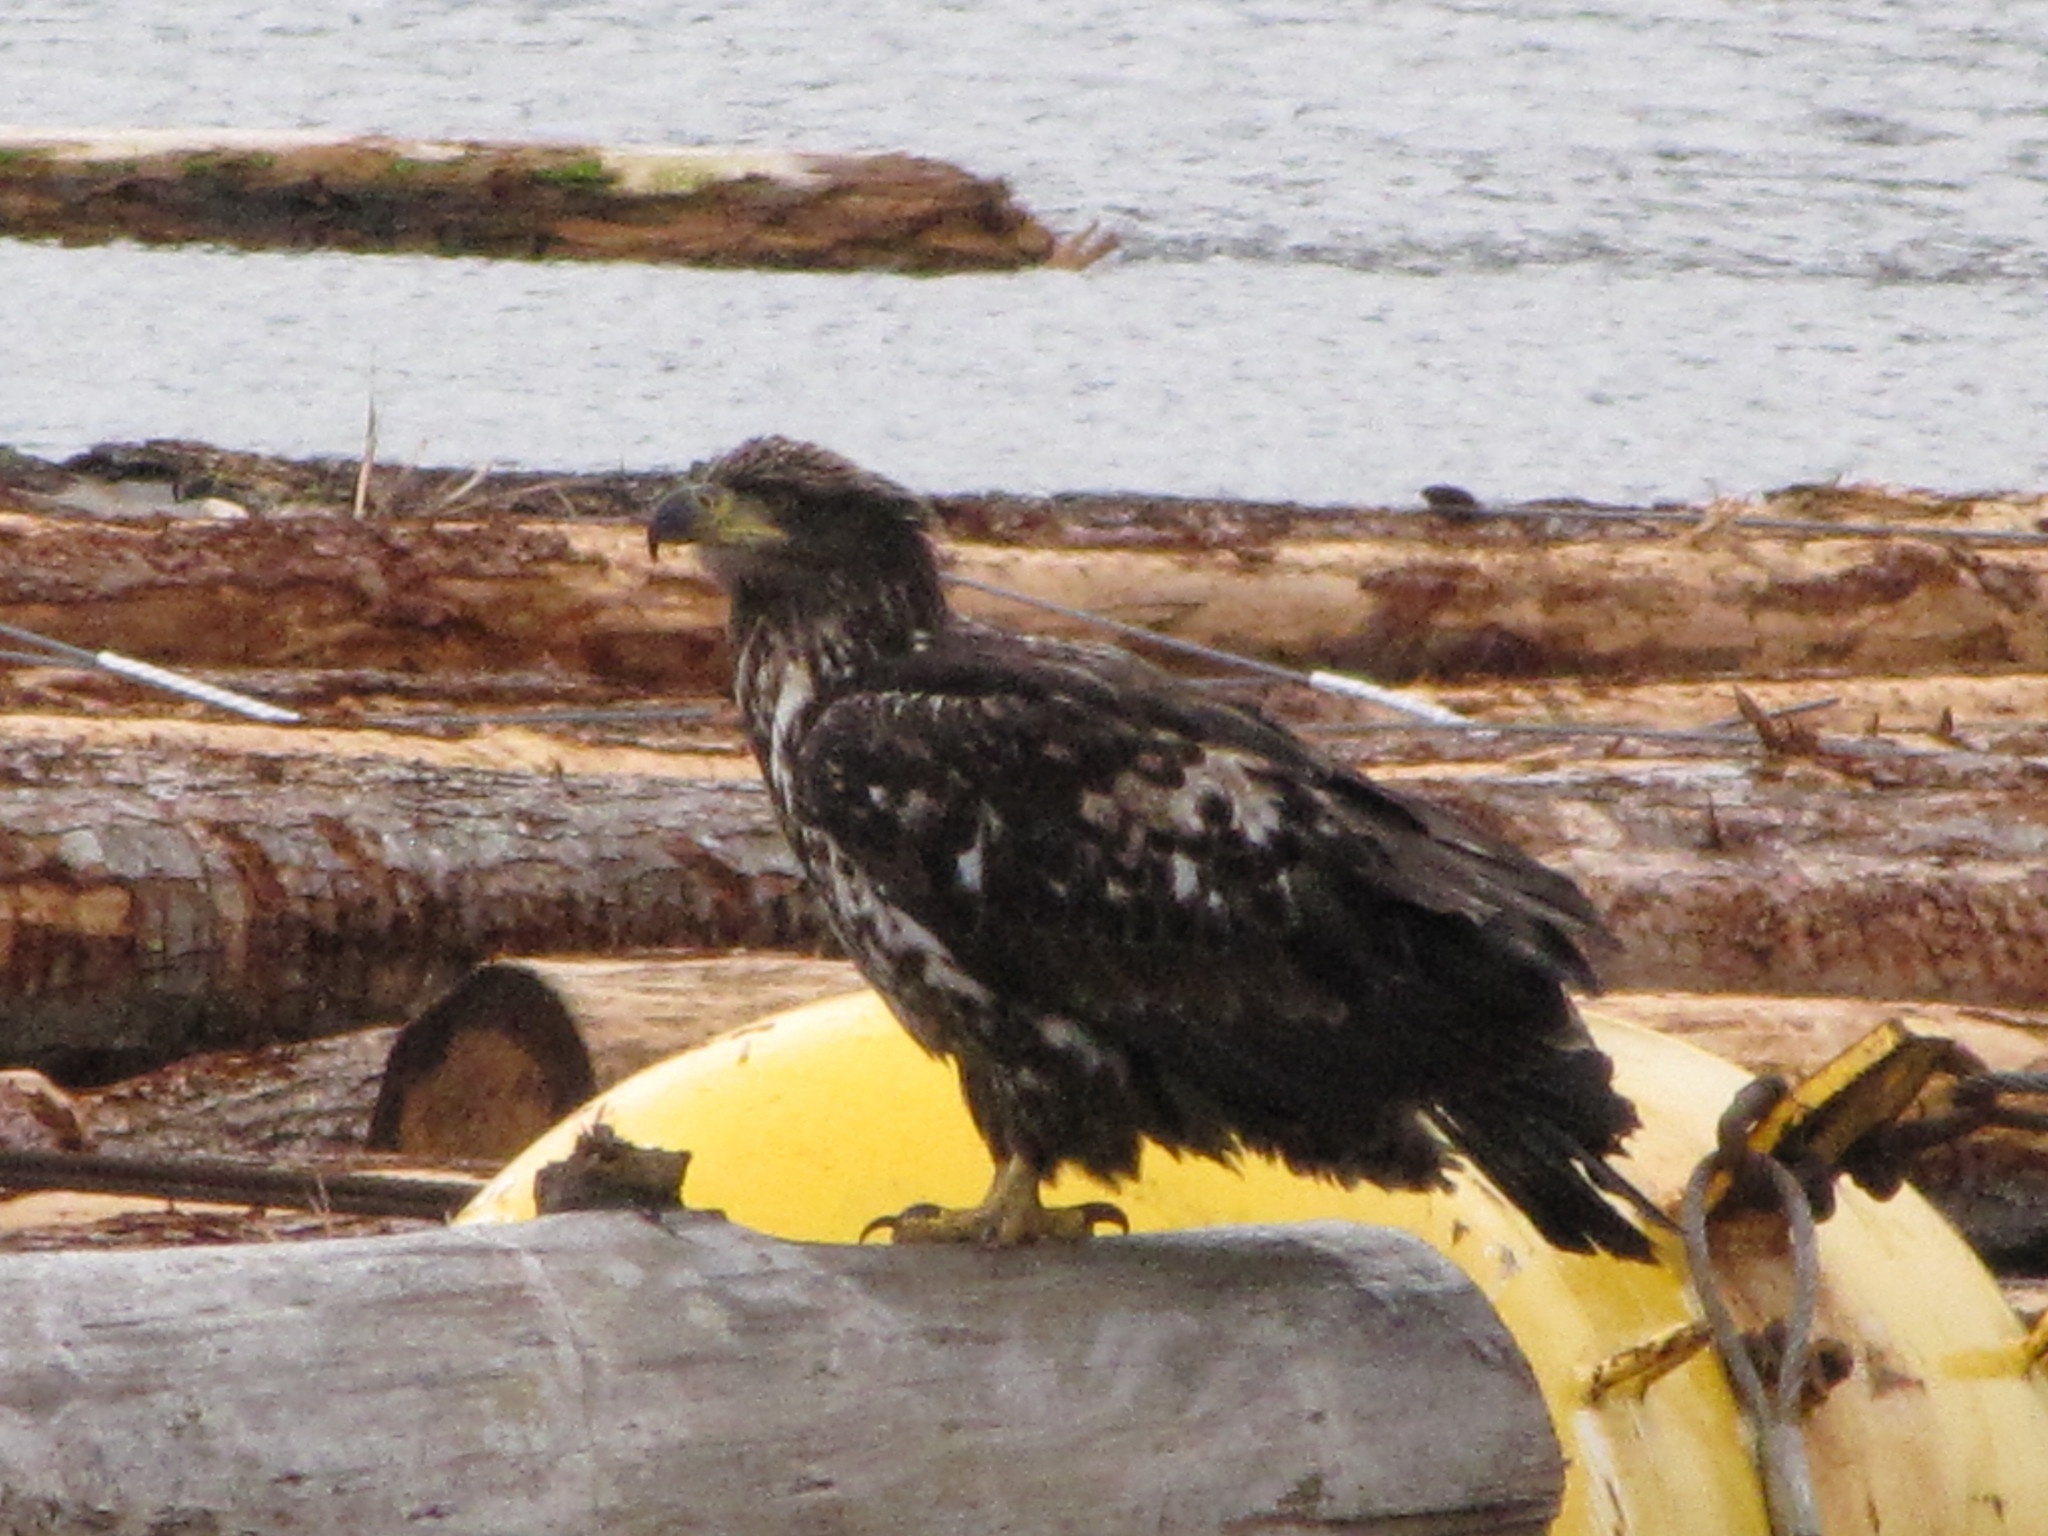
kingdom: Animalia
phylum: Chordata
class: Aves
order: Accipitriformes
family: Accipitridae
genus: Haliaeetus
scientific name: Haliaeetus leucocephalus
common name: Bald eagle
